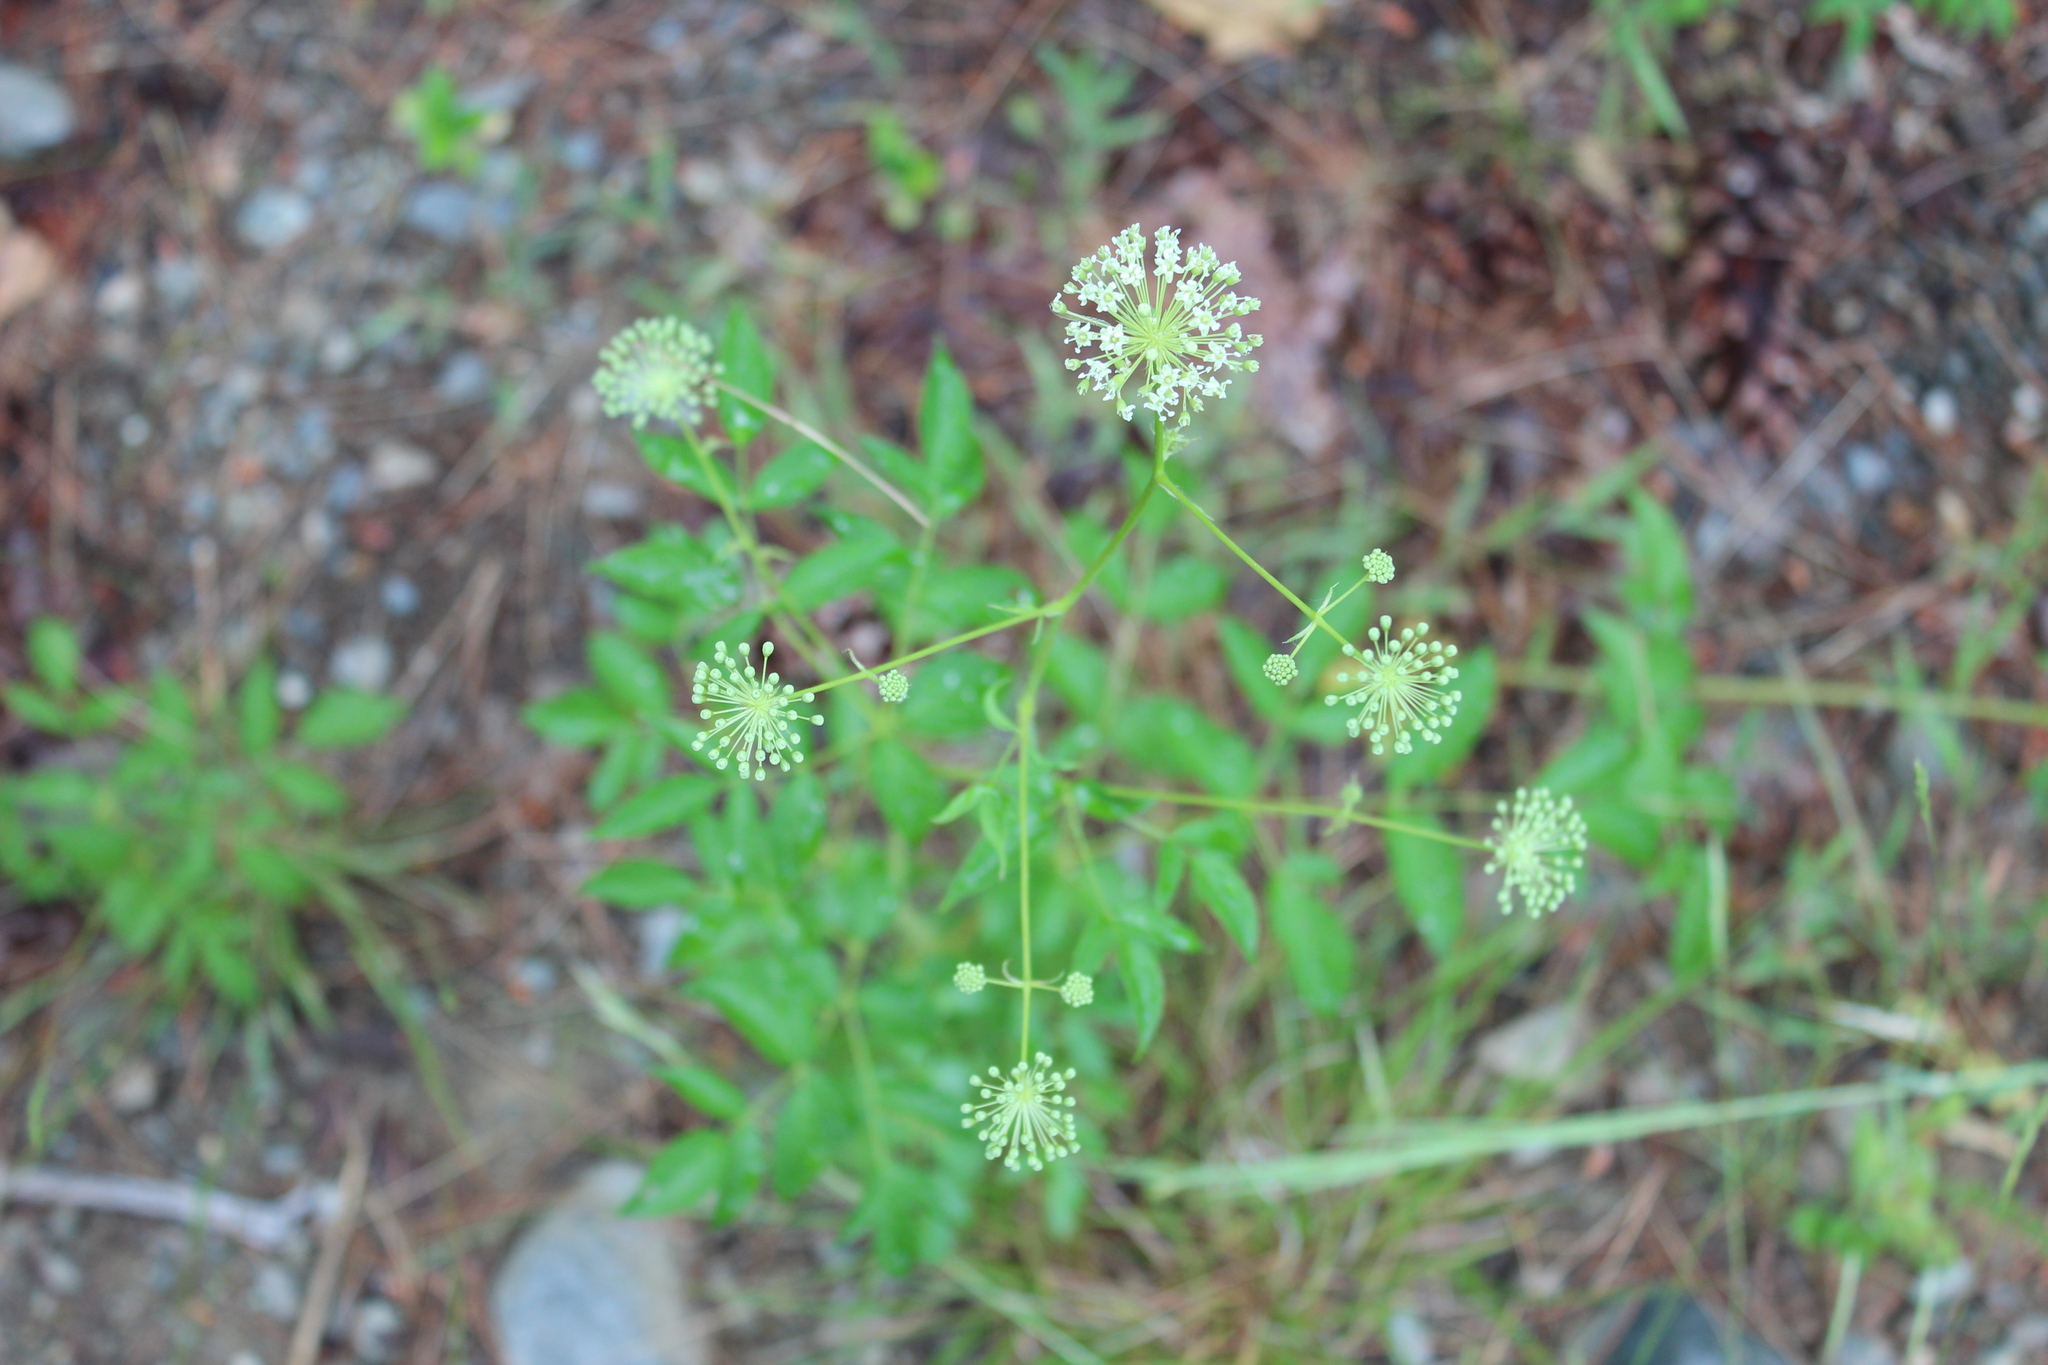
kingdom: Plantae
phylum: Tracheophyta
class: Magnoliopsida
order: Apiales
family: Araliaceae
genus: Aralia
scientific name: Aralia hispida
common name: Bristly sarsaparilla
